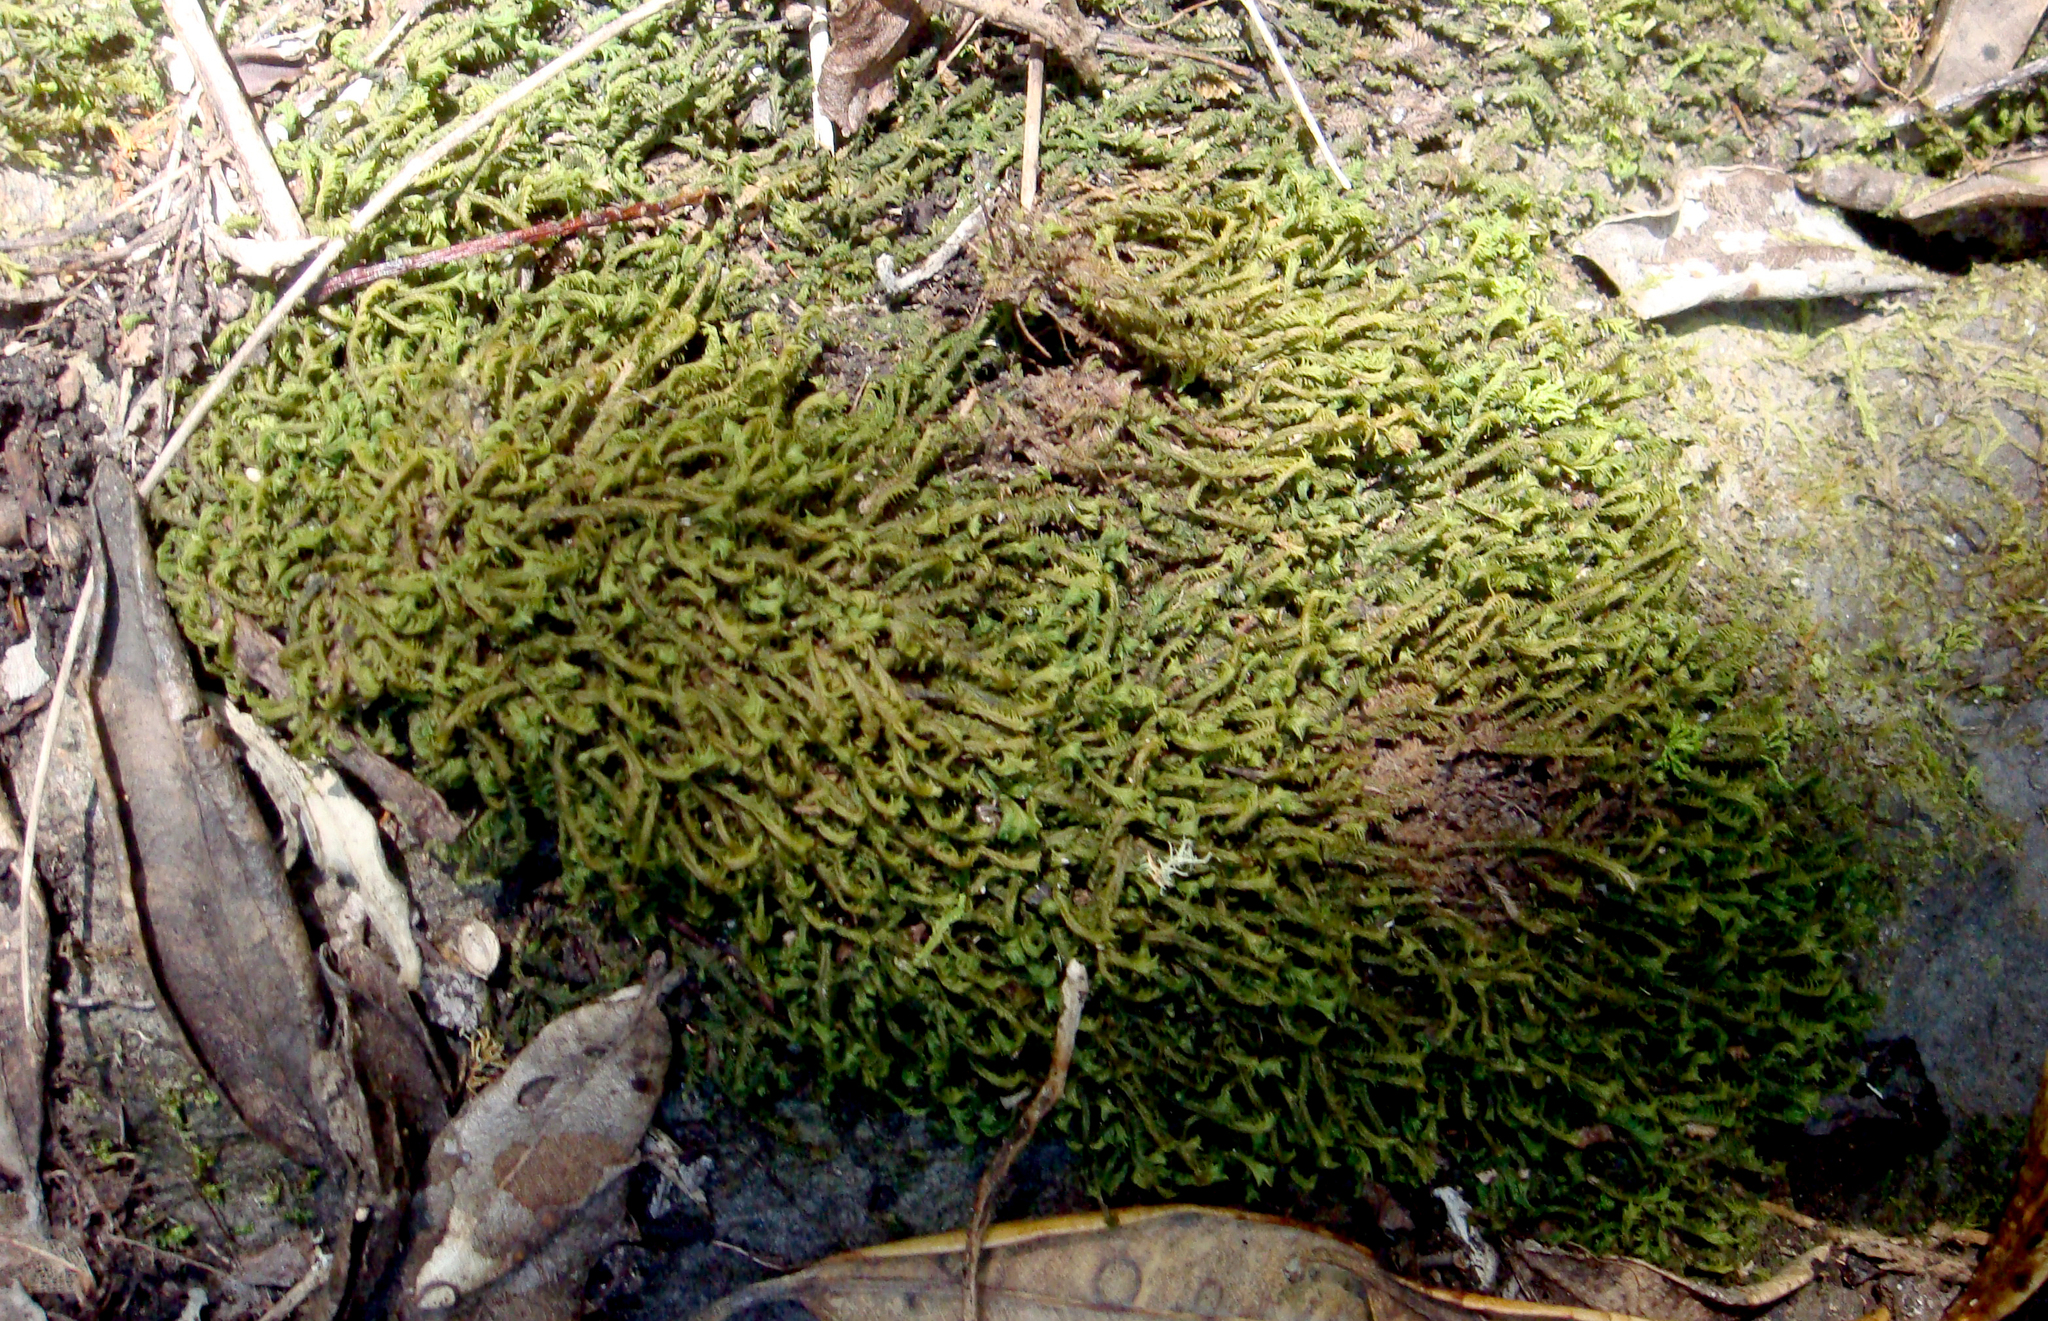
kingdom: Plantae
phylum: Marchantiophyta
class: Jungermanniopsida
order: Jungermanniales
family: Plagiochilaceae
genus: Plagiochila
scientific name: Plagiochila kirkii
